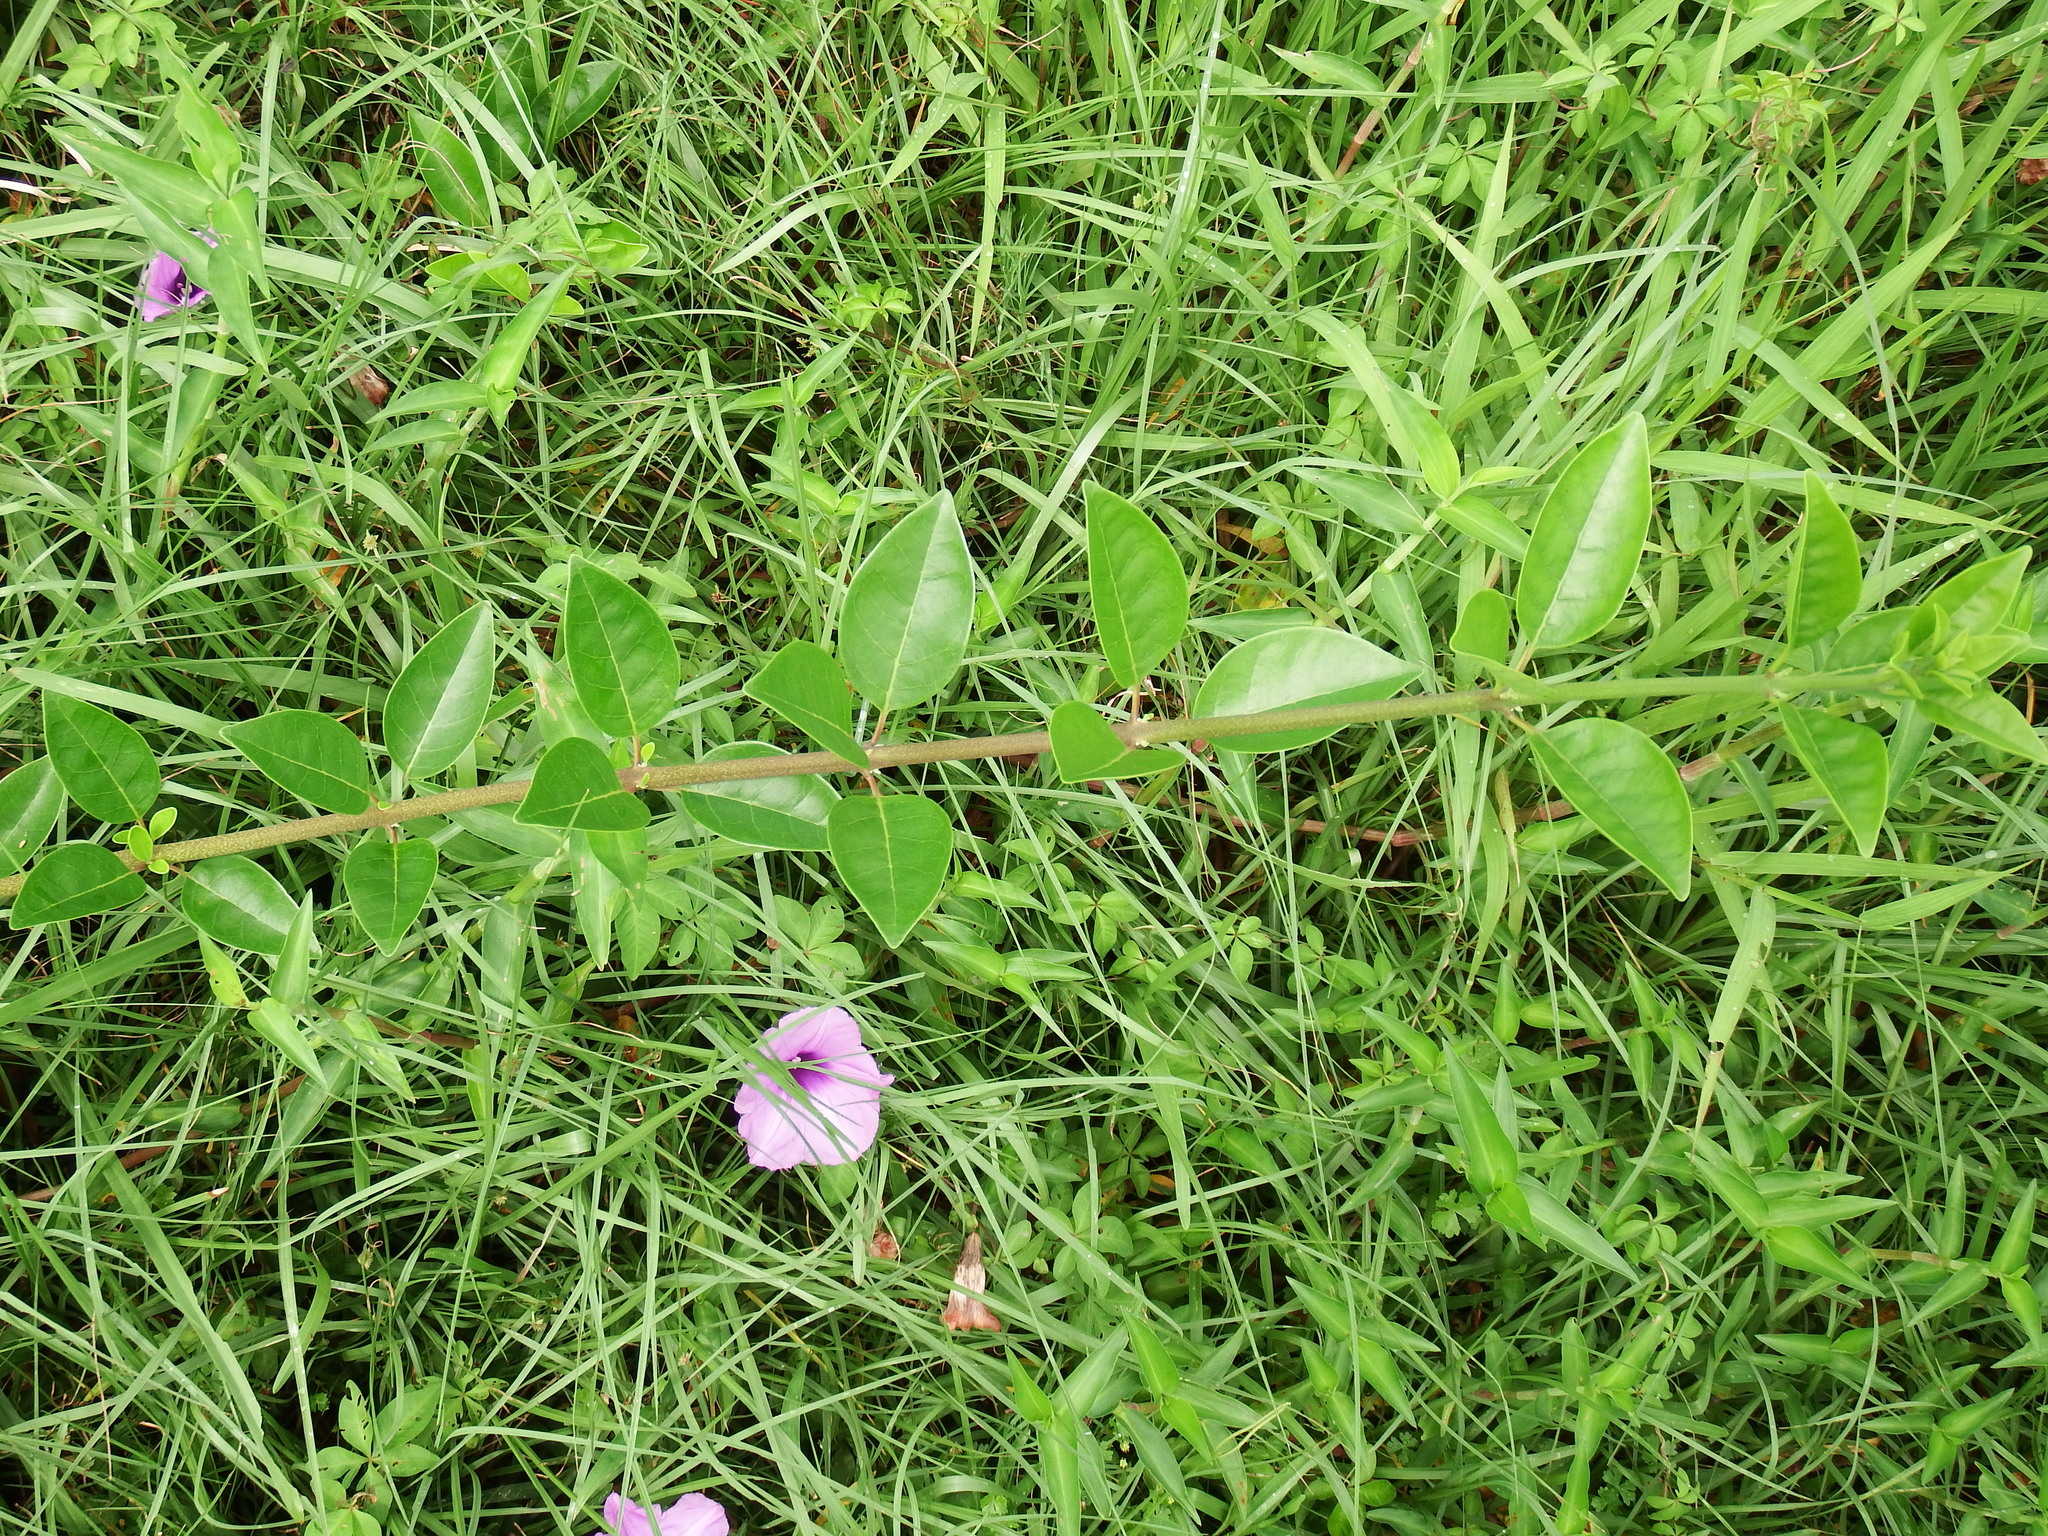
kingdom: Plantae
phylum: Tracheophyta
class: Magnoliopsida
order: Lamiales
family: Lamiaceae
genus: Volkameria
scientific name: Volkameria inermis
